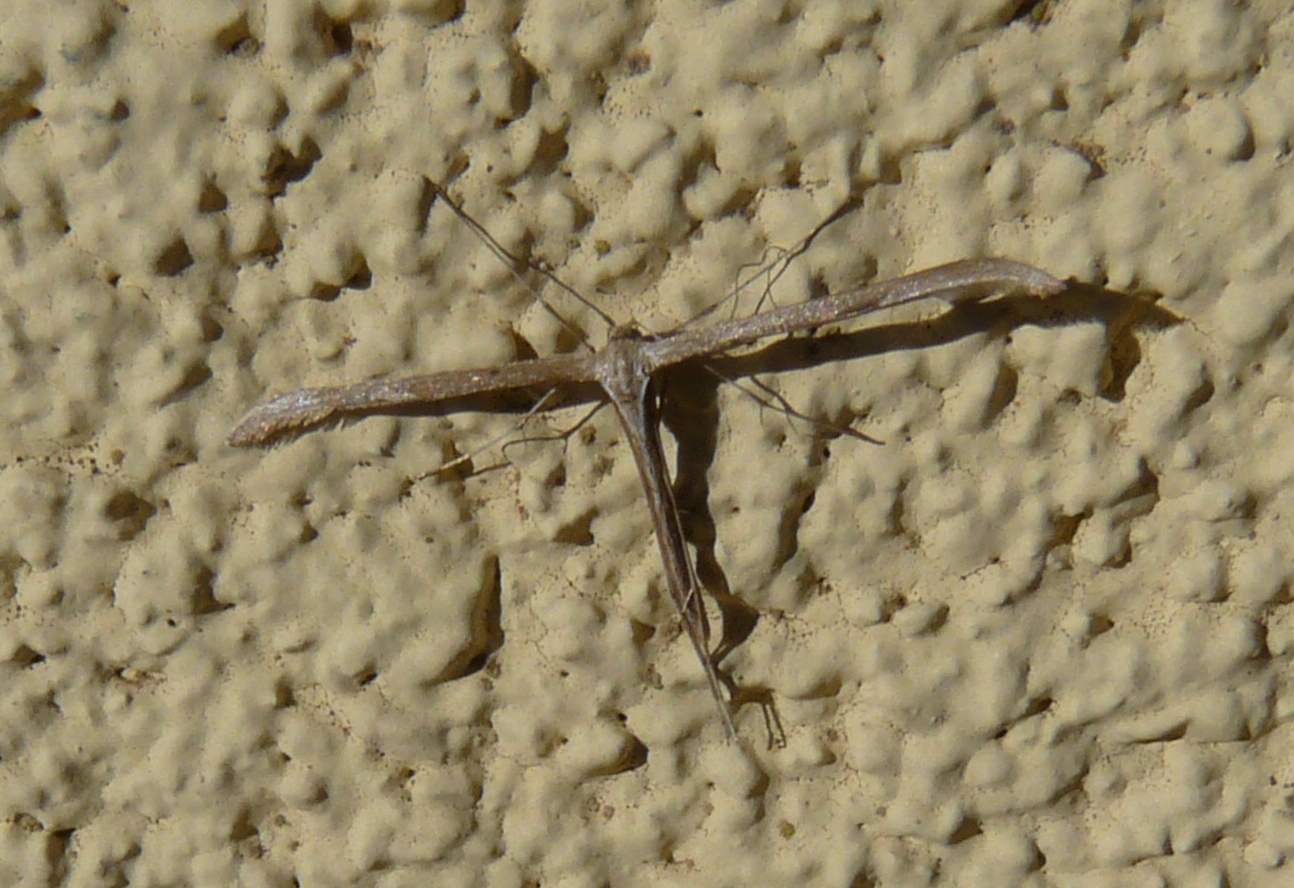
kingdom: Animalia
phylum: Arthropoda
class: Insecta
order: Lepidoptera
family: Pterophoridae
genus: Emmelina
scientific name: Emmelina monodactyla
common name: Common plume
